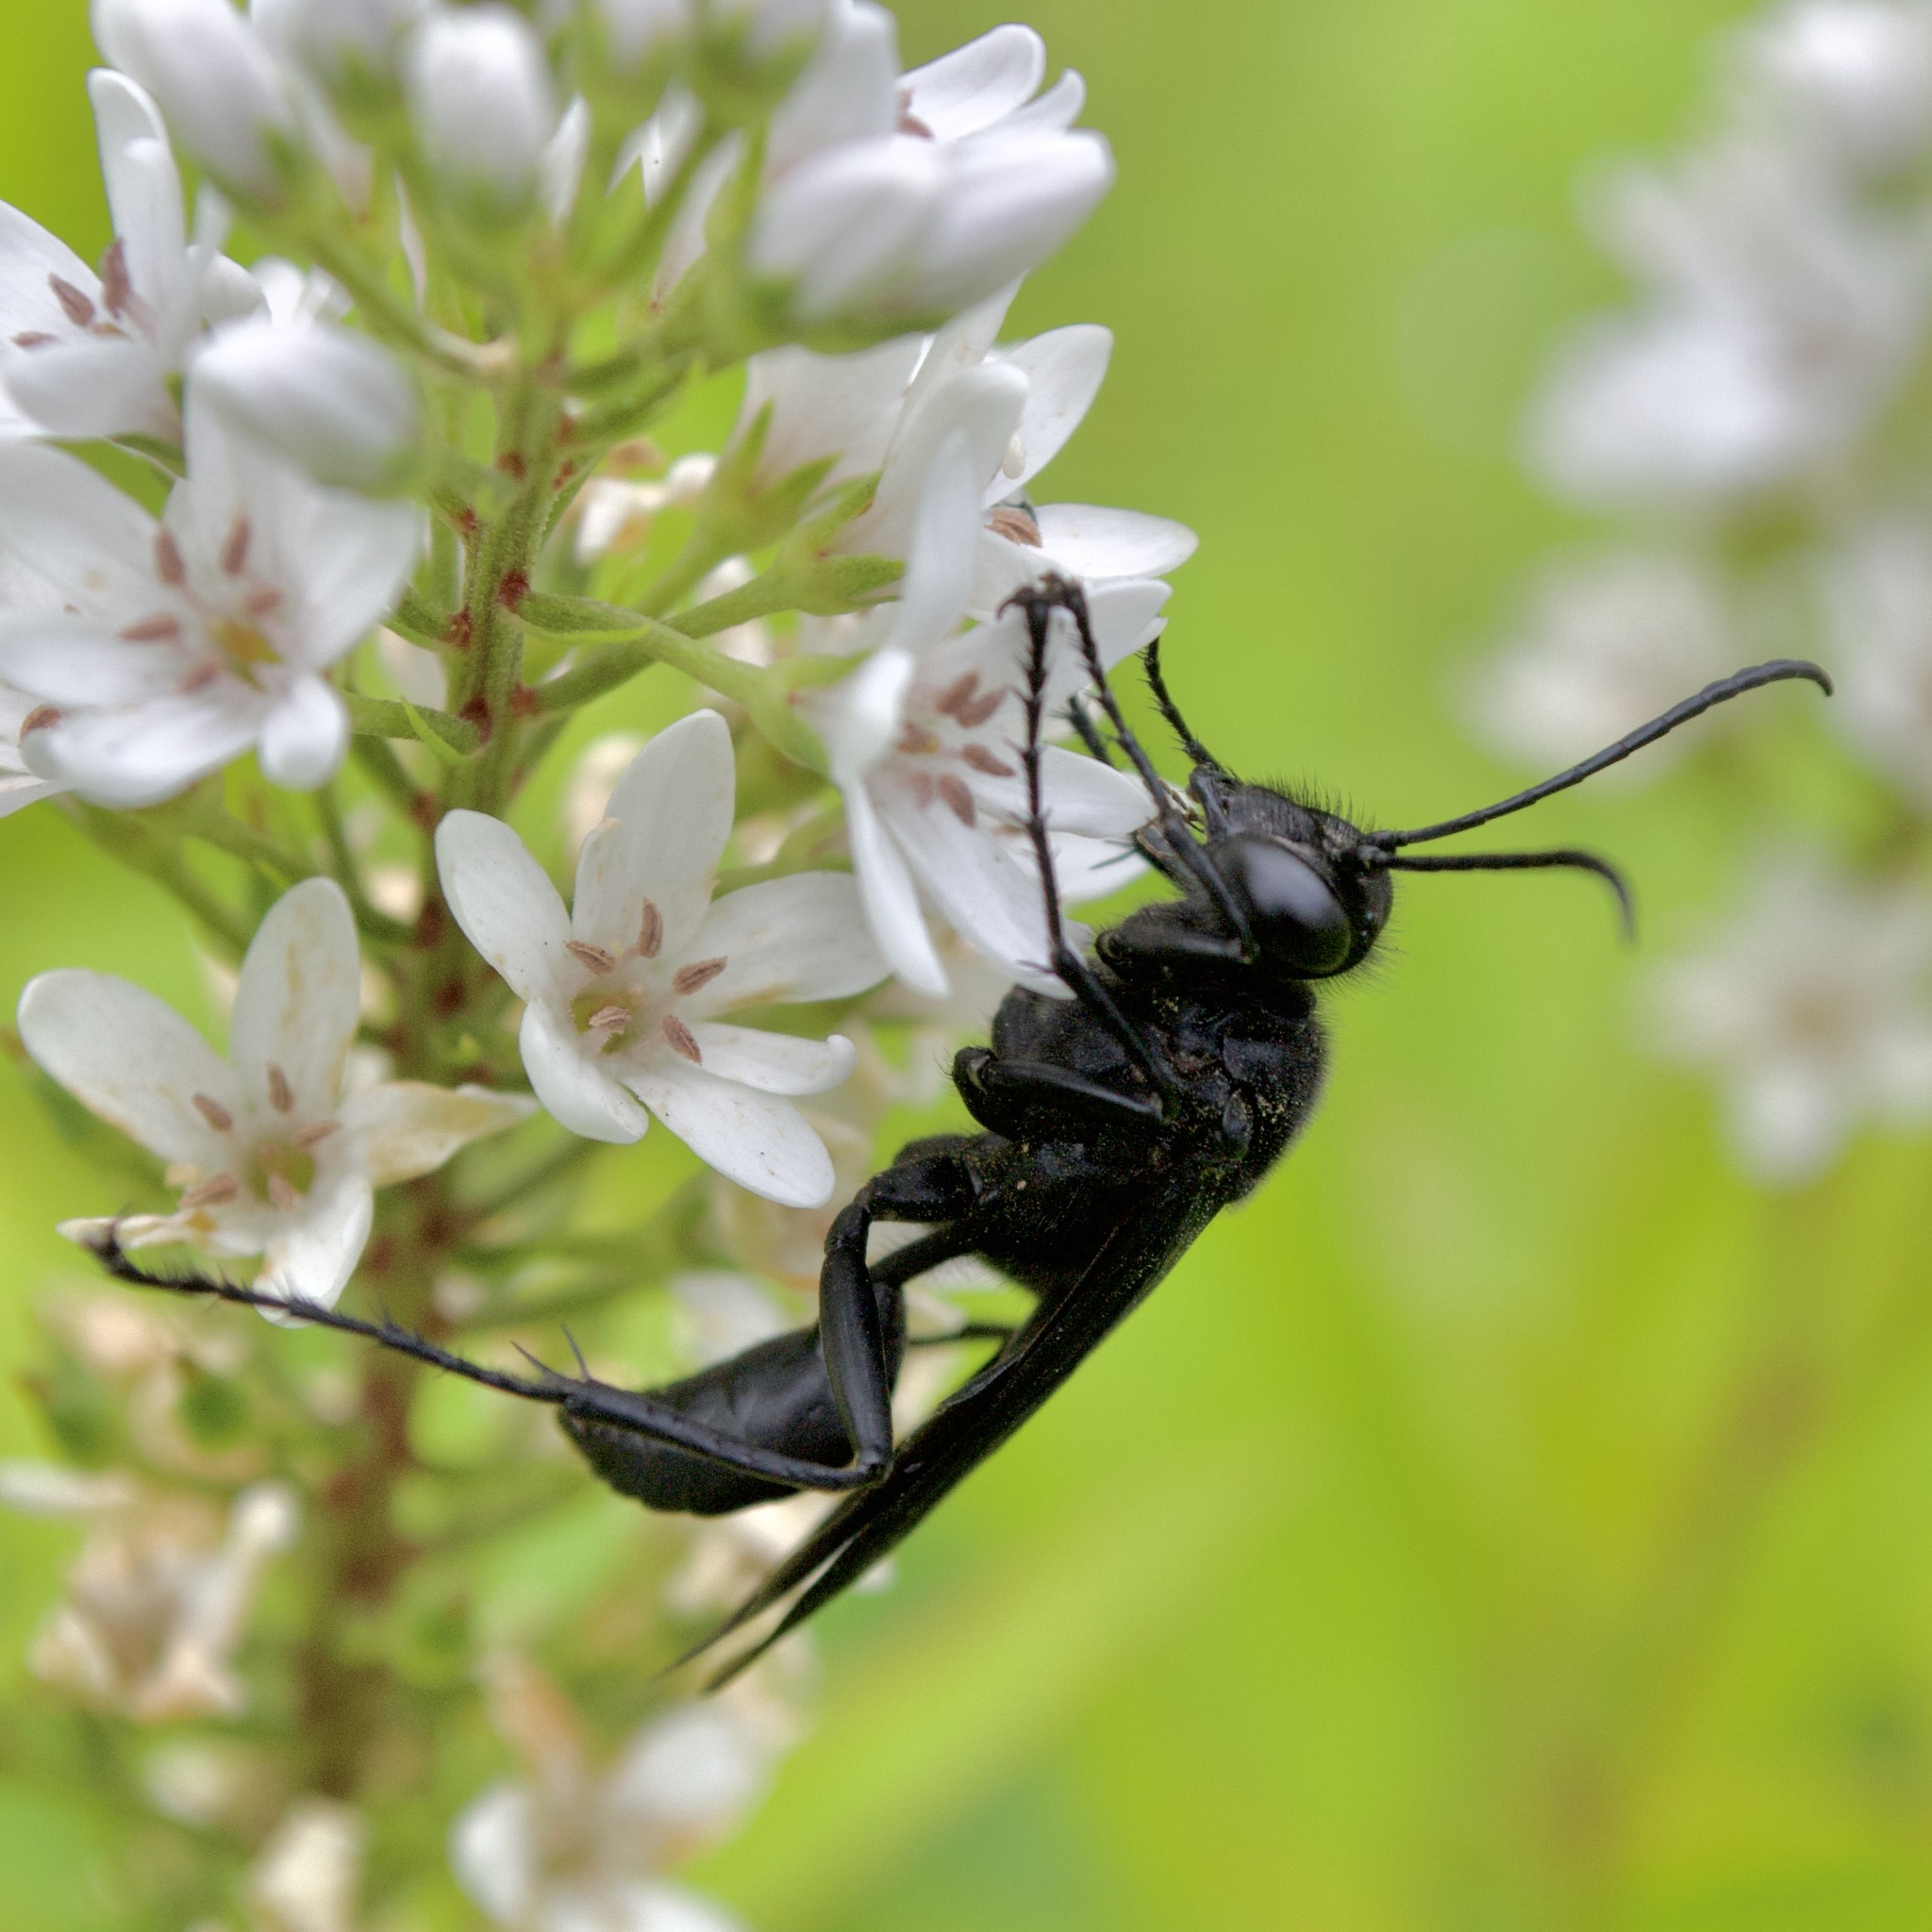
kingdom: Animalia
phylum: Arthropoda
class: Insecta
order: Hymenoptera
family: Sphecidae
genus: Prionyx
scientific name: Prionyx atratus
